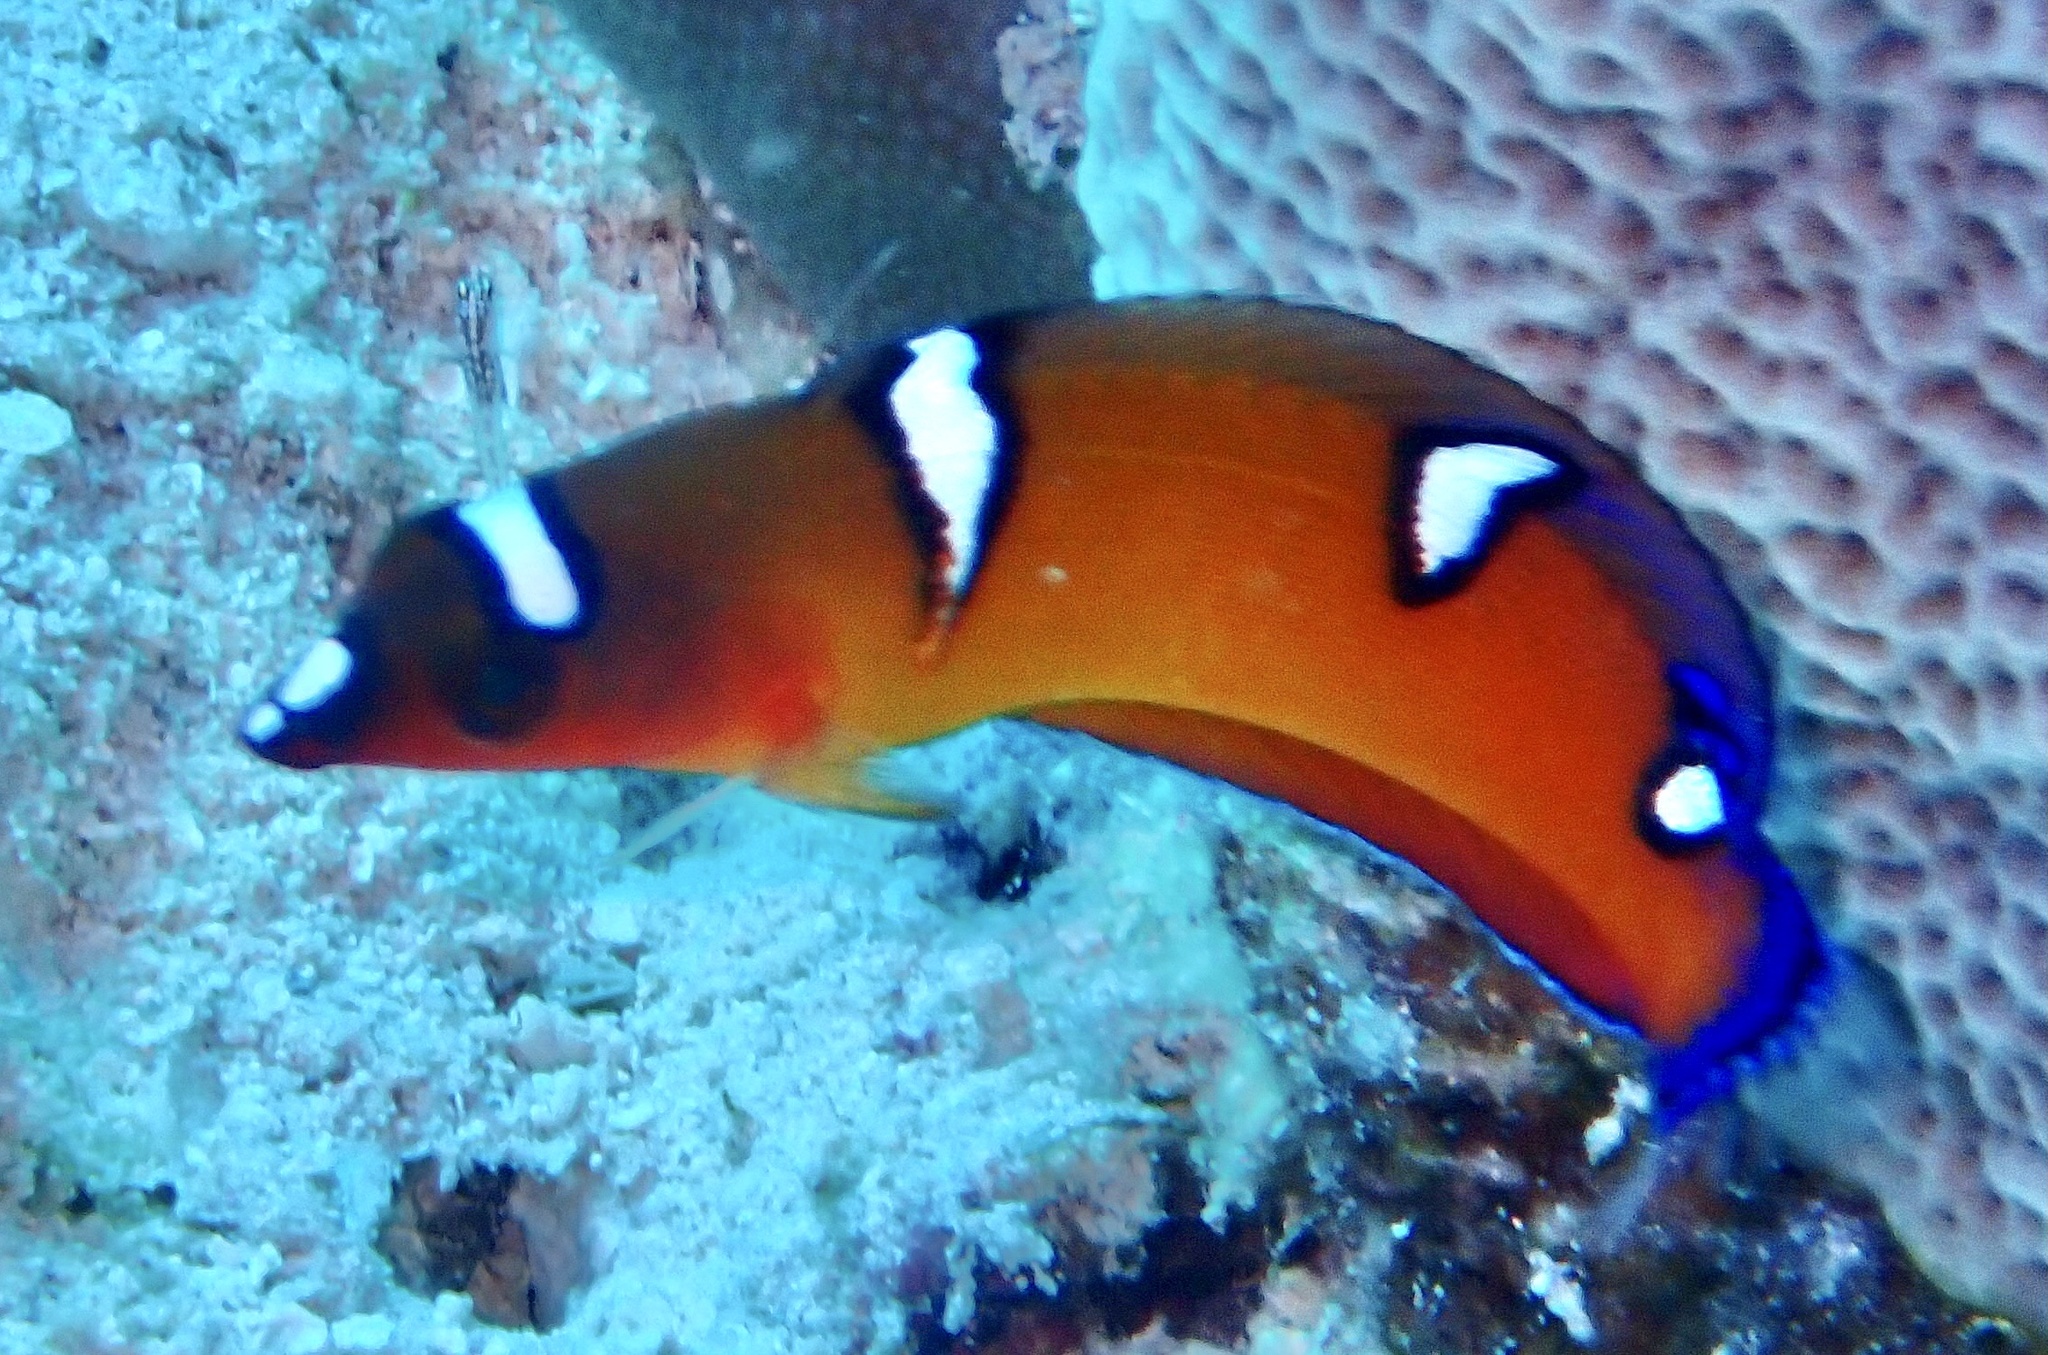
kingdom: Animalia
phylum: Chordata
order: Perciformes
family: Labridae
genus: Coris
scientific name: Coris cuvieri
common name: African coris
